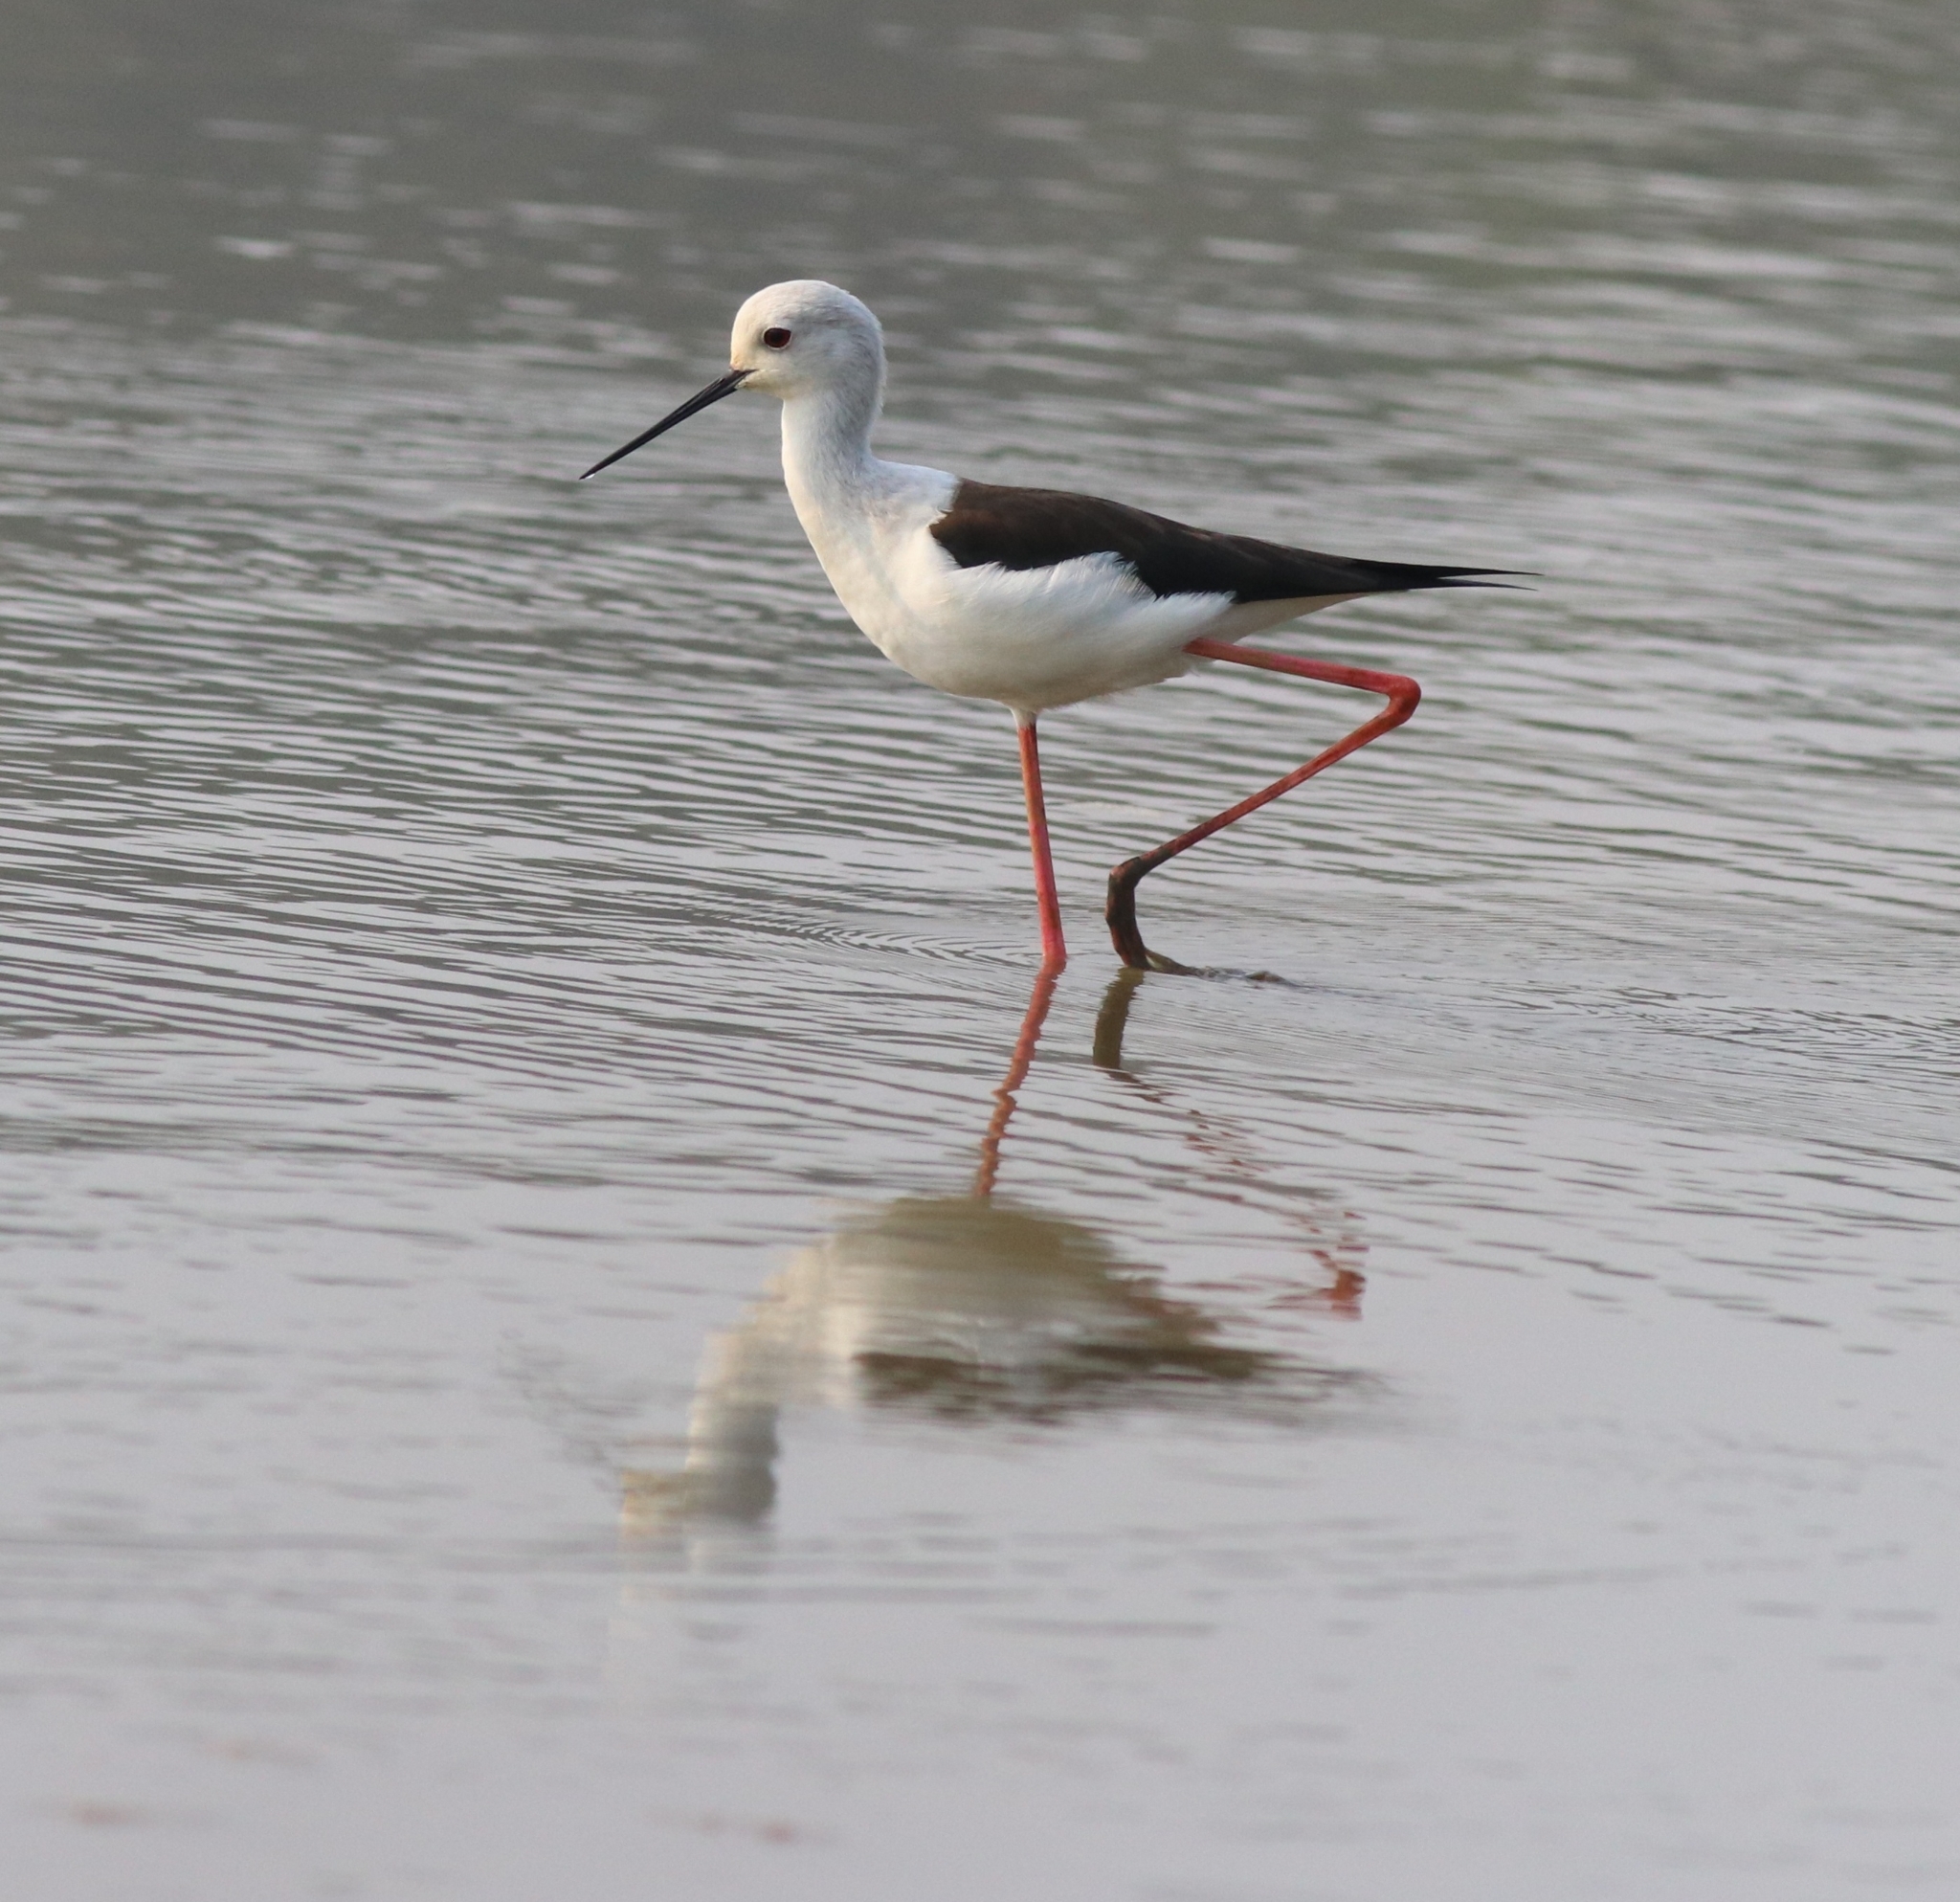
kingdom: Animalia
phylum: Chordata
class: Aves
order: Charadriiformes
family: Recurvirostridae
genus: Himantopus
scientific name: Himantopus himantopus
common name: Black-winged stilt
